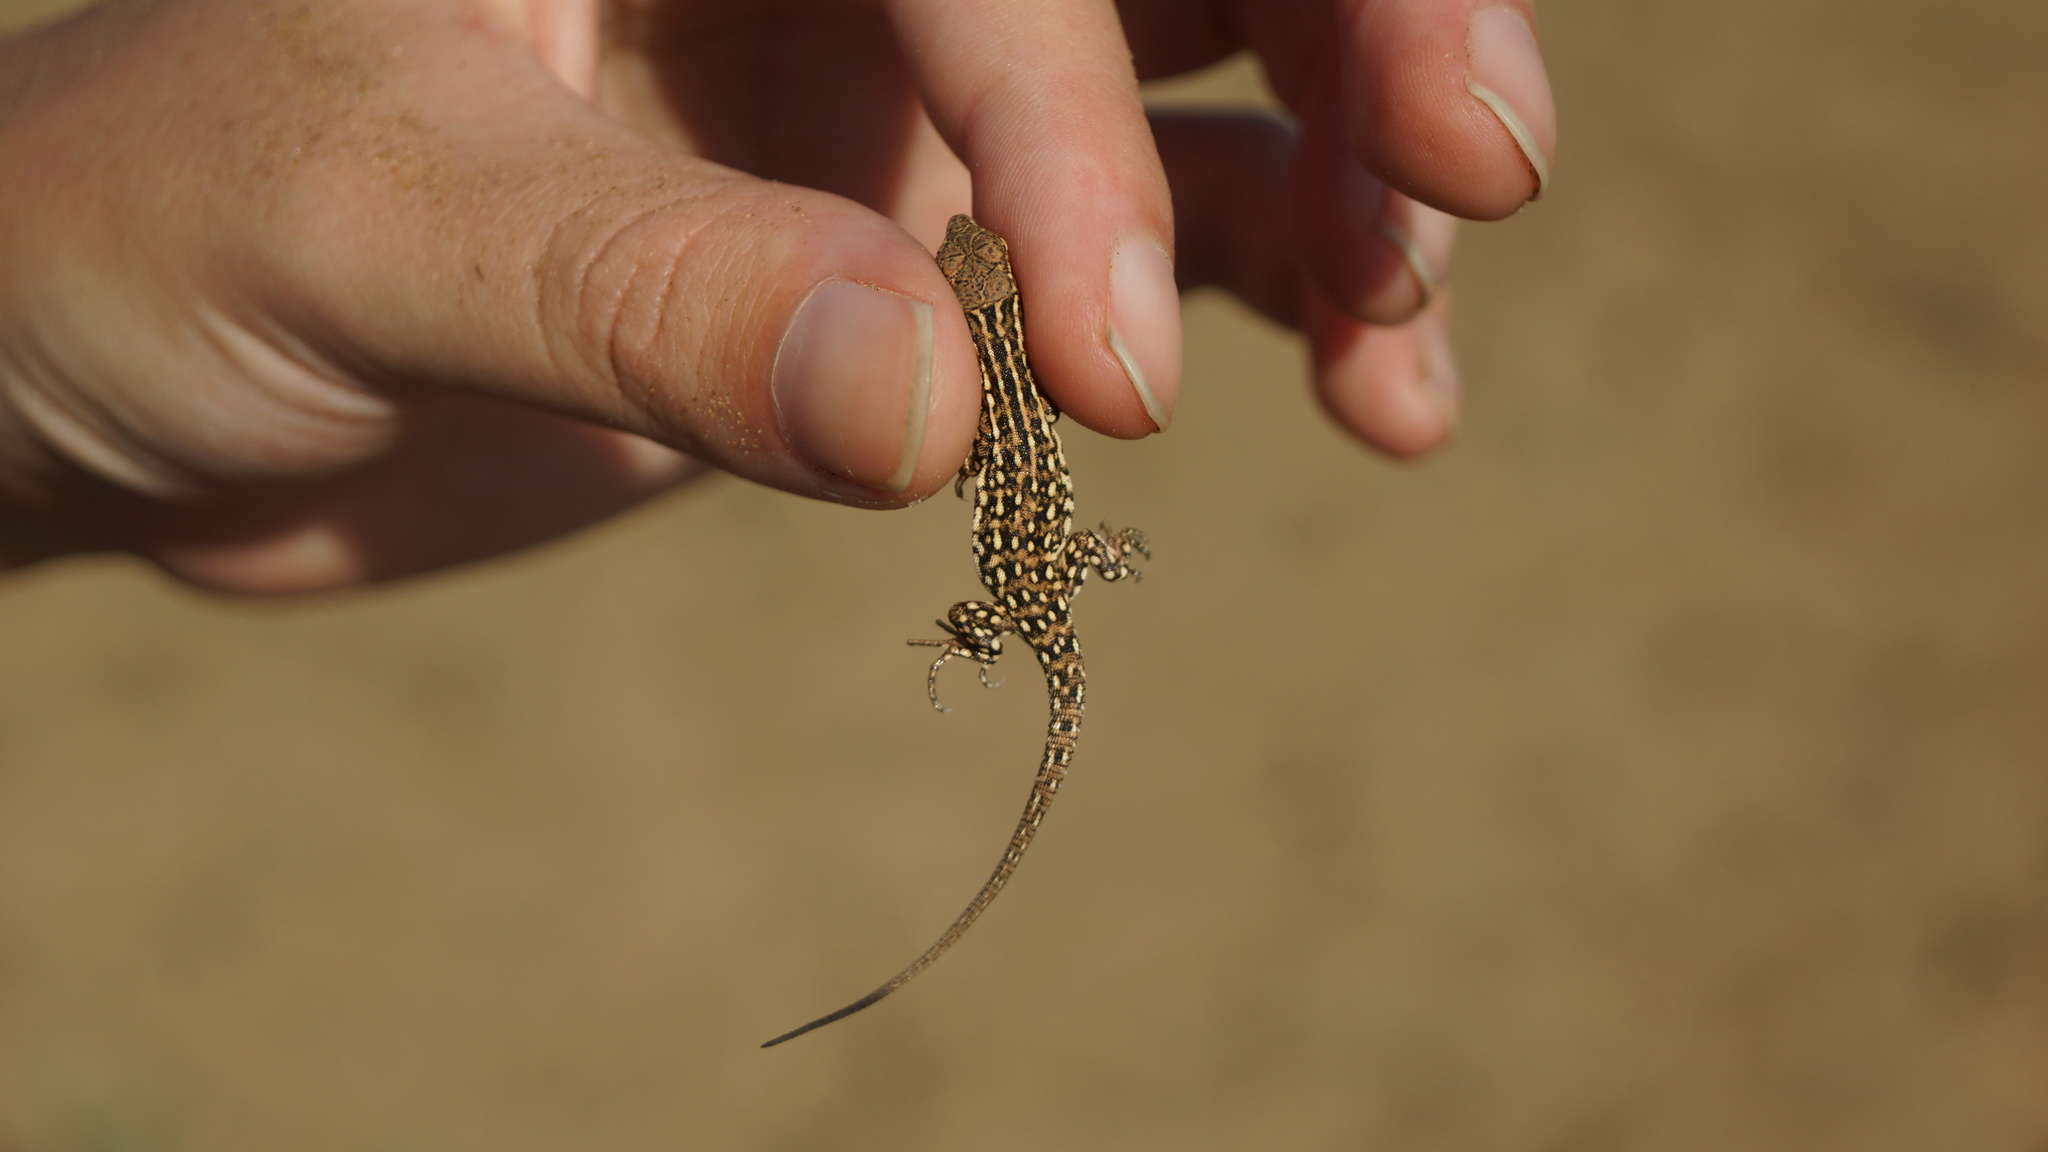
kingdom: Animalia
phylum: Chordata
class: Squamata
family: Lacertidae
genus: Eremias
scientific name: Eremias arguta
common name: Racerunner
